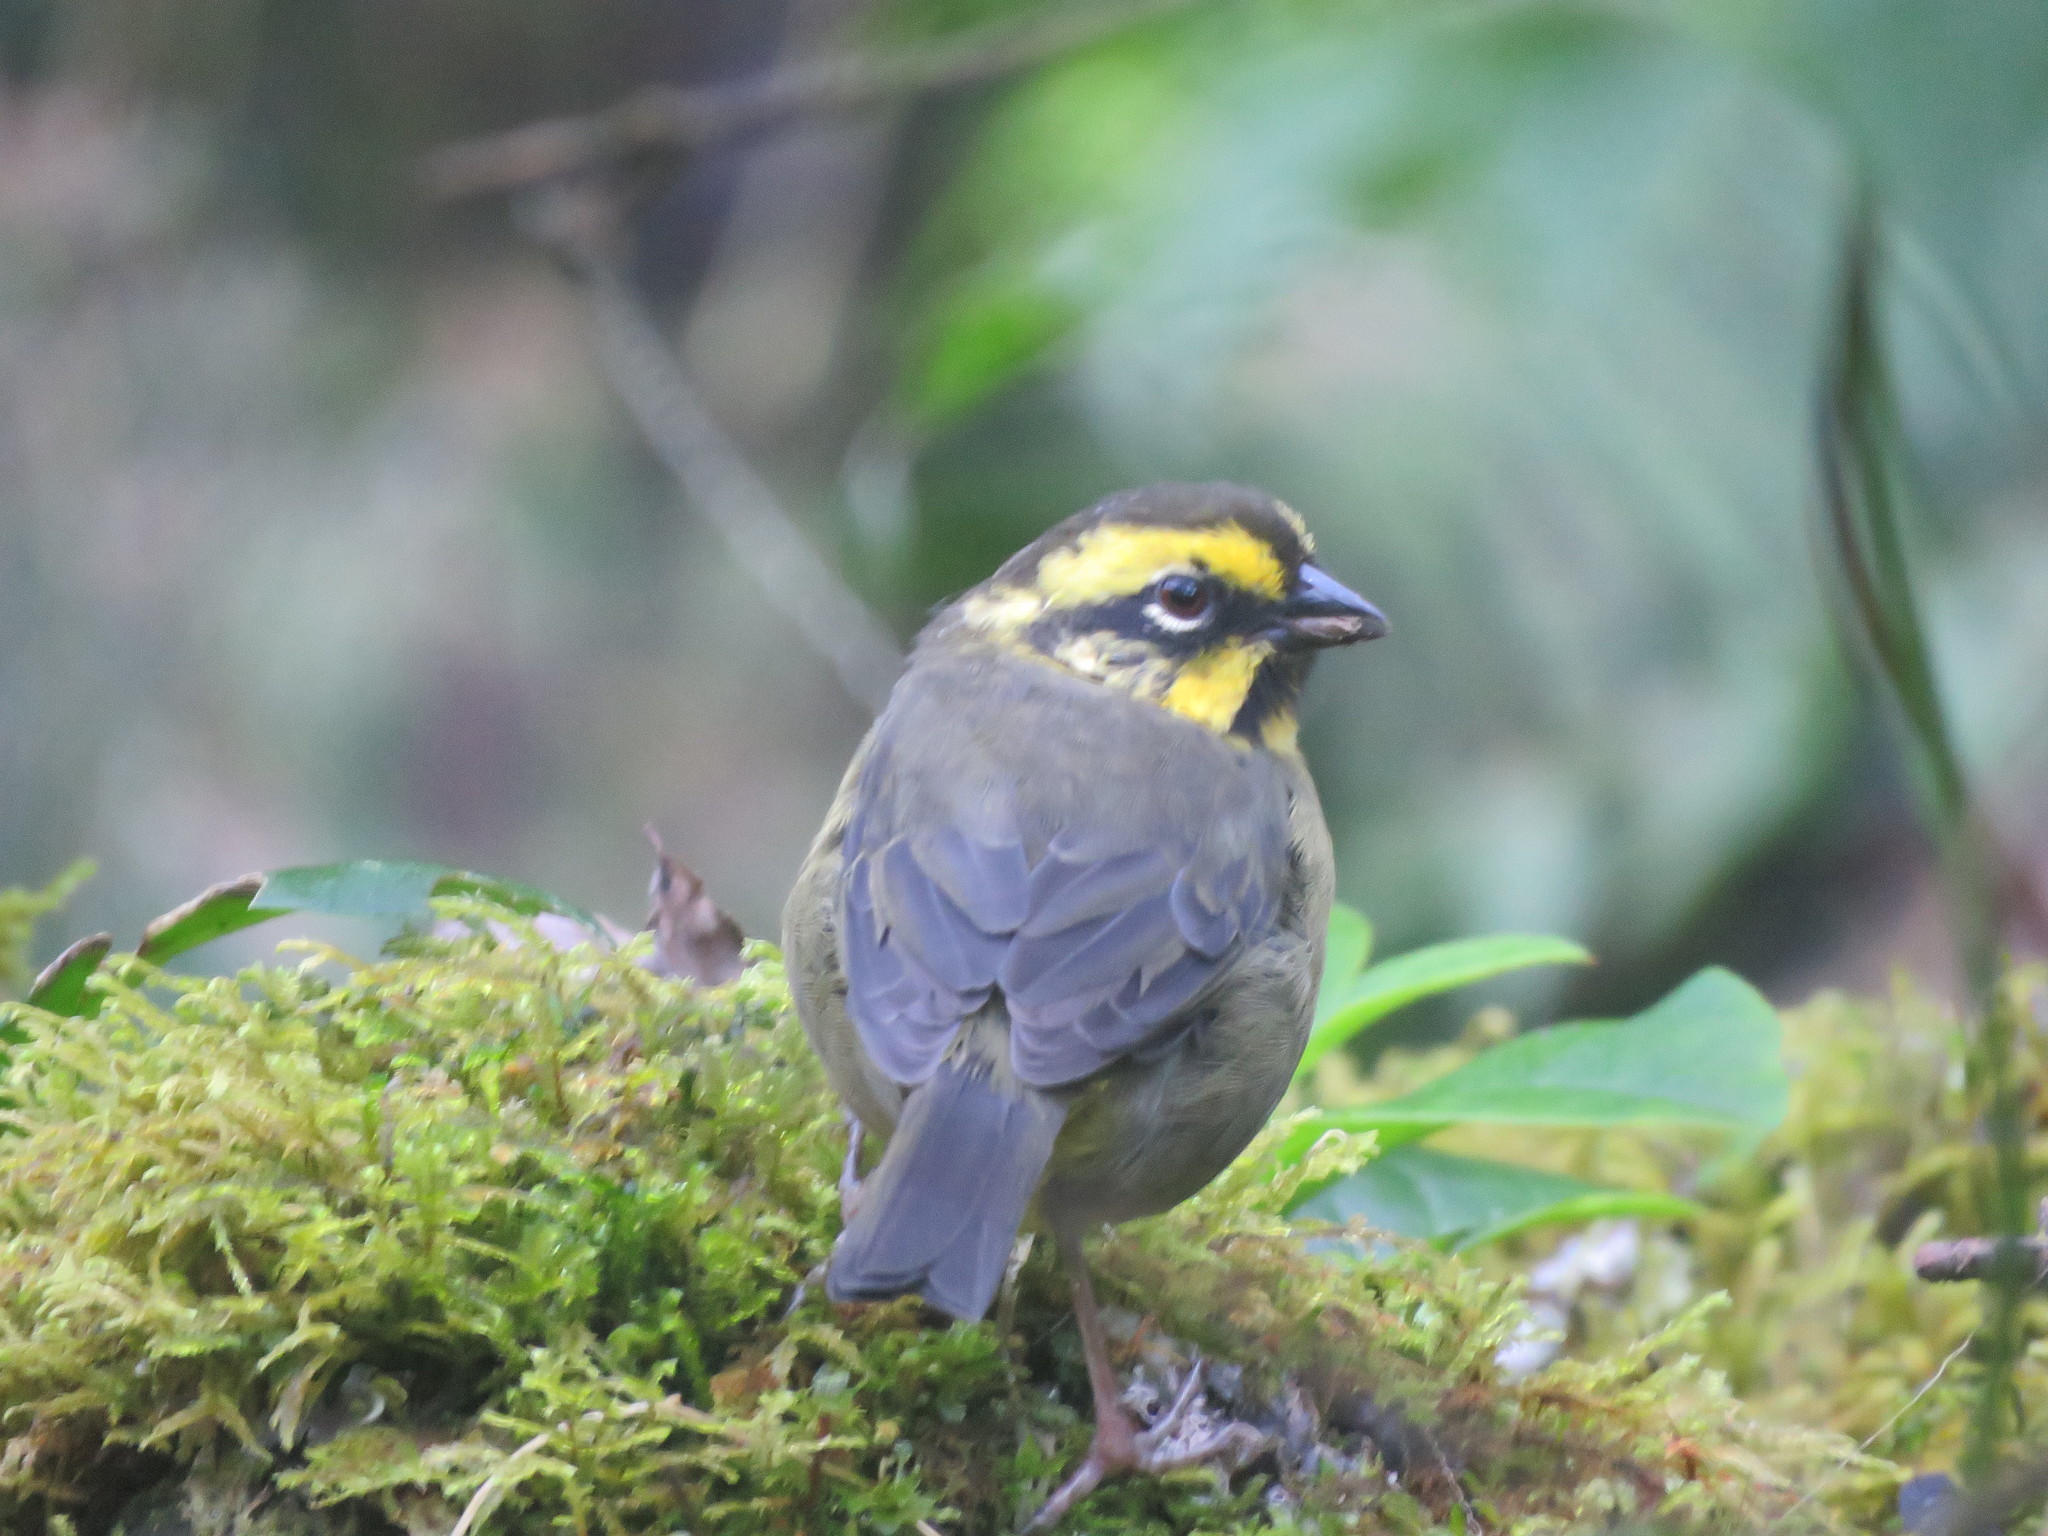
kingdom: Animalia
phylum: Chordata
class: Aves
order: Passeriformes
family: Passerellidae
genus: Atlapetes
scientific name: Atlapetes citrinellus
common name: Yellow-striped brushfinch
